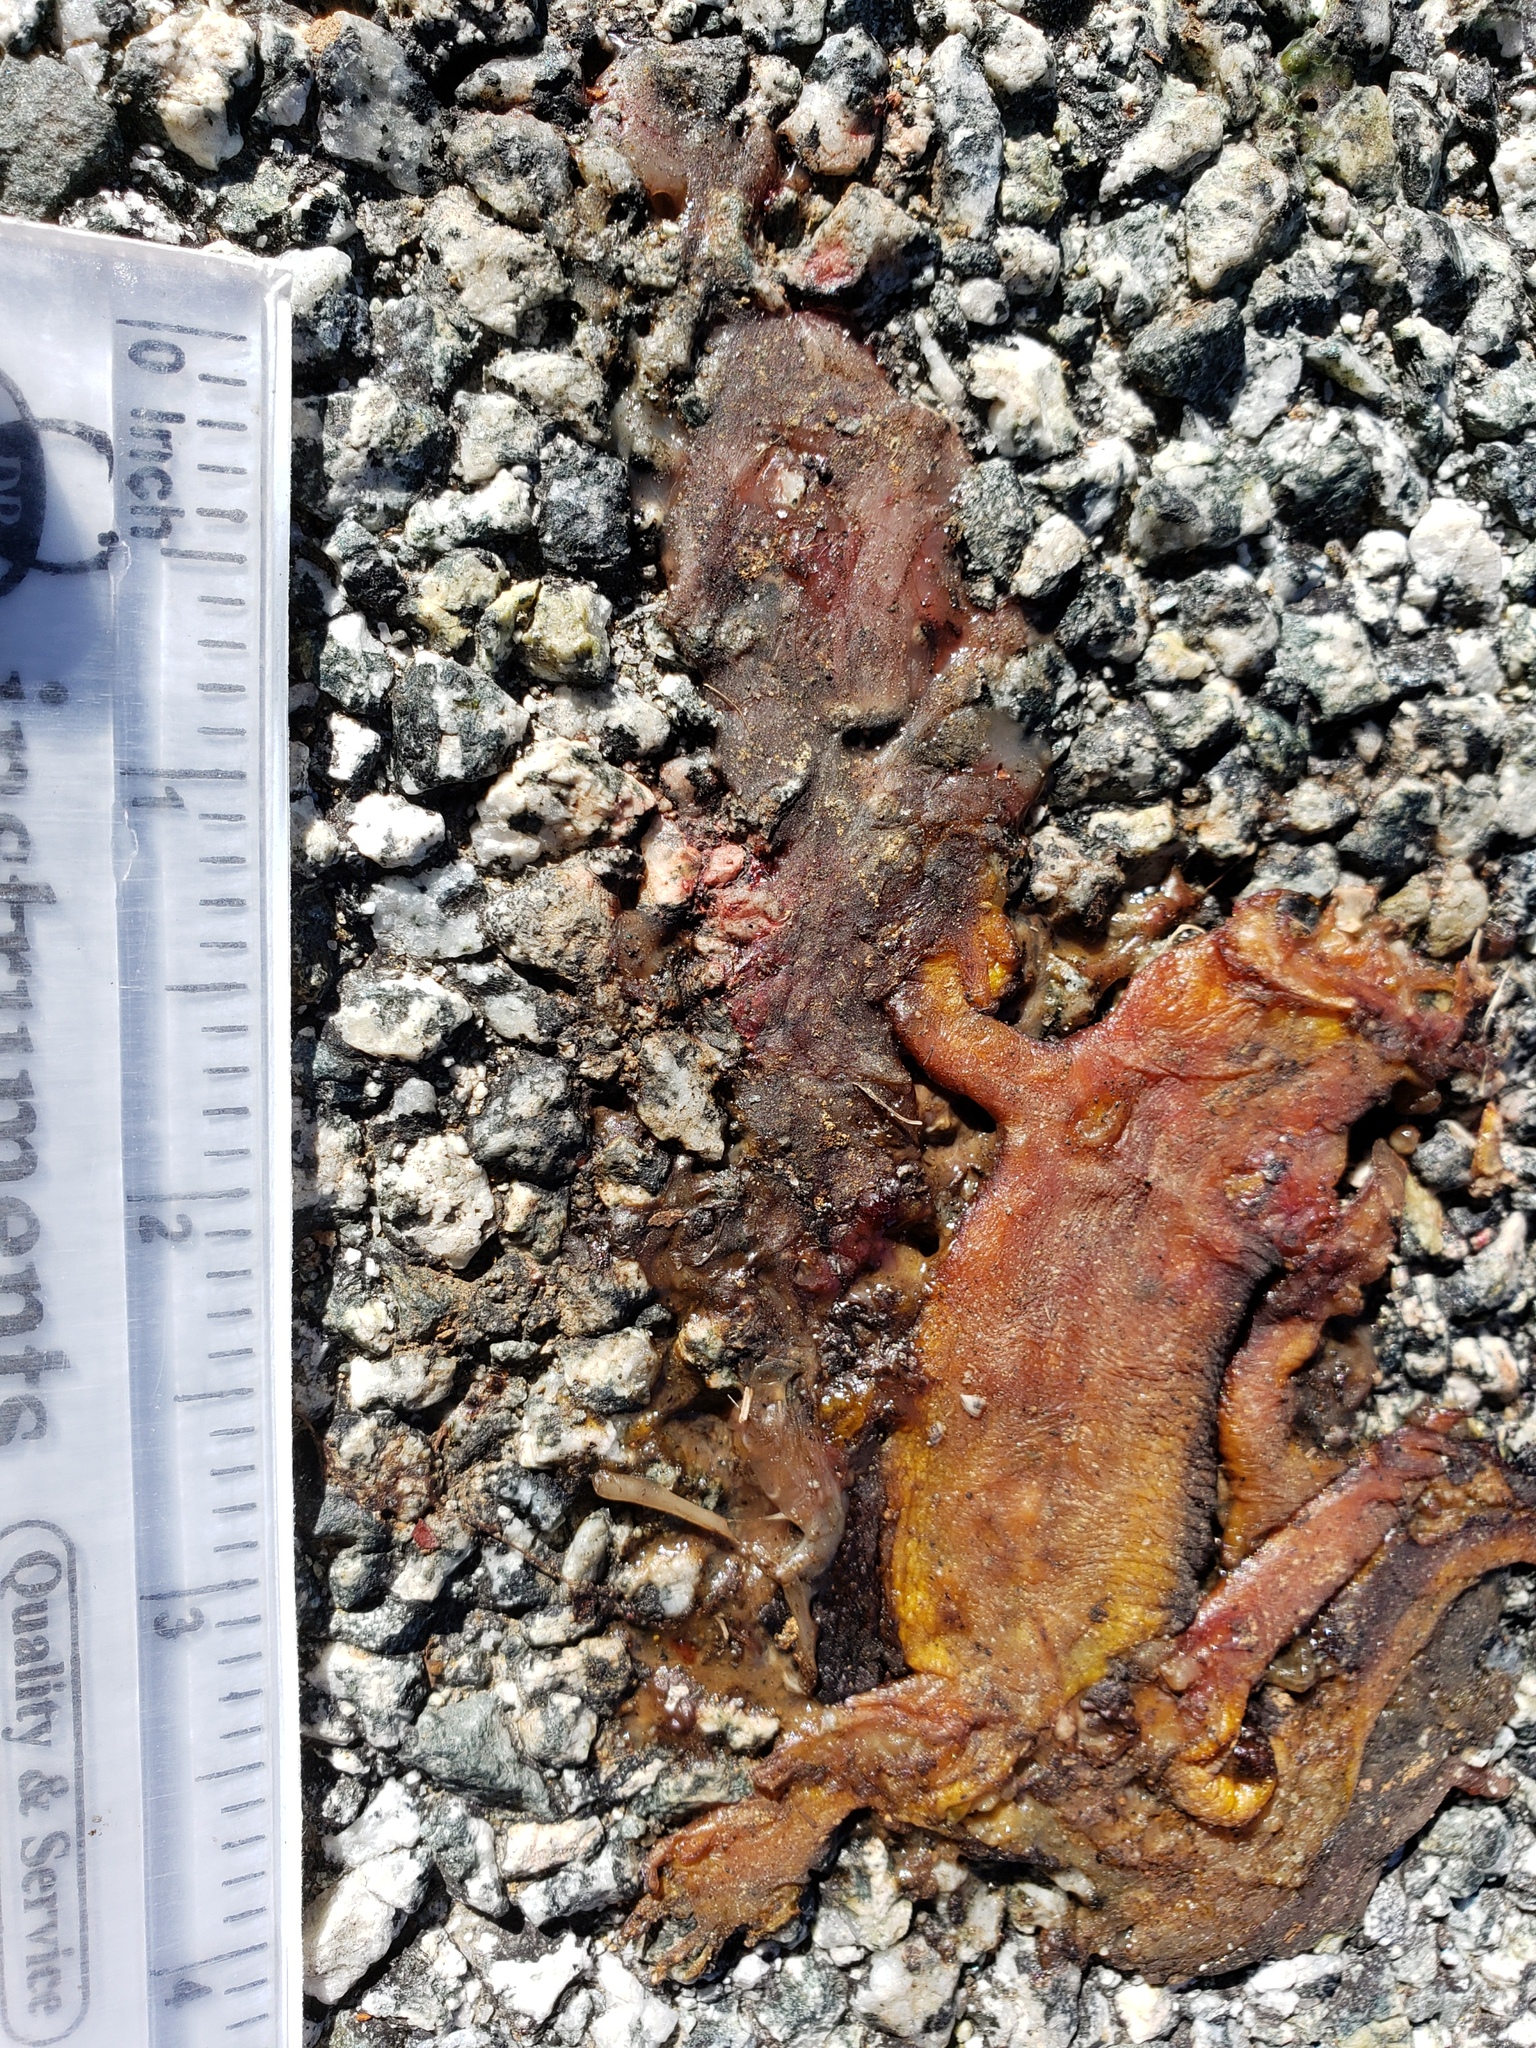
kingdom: Animalia
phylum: Chordata
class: Amphibia
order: Caudata
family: Salamandridae
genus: Taricha
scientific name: Taricha
